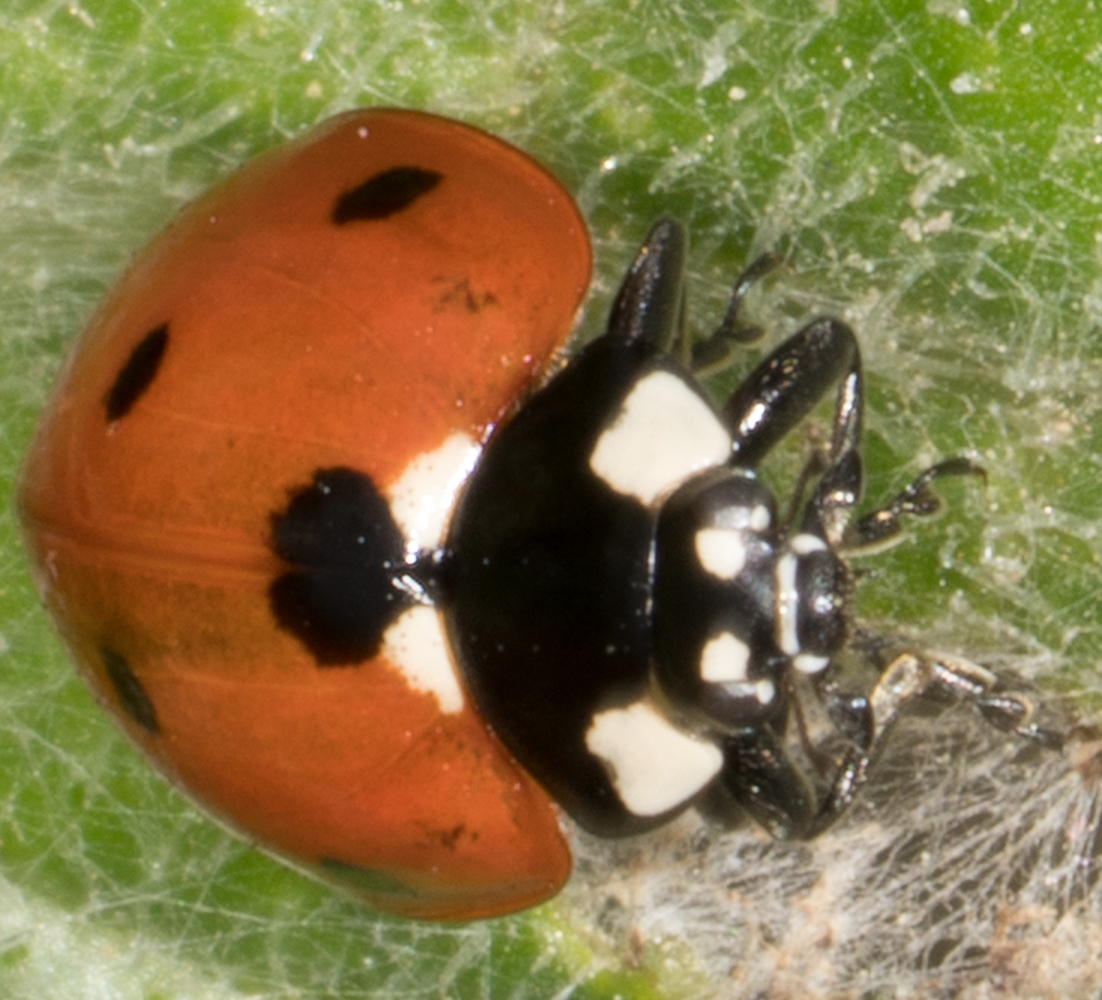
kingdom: Animalia
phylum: Arthropoda
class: Insecta
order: Coleoptera
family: Coccinellidae
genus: Coccinella
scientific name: Coccinella septempunctata
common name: Sevenspotted lady beetle
